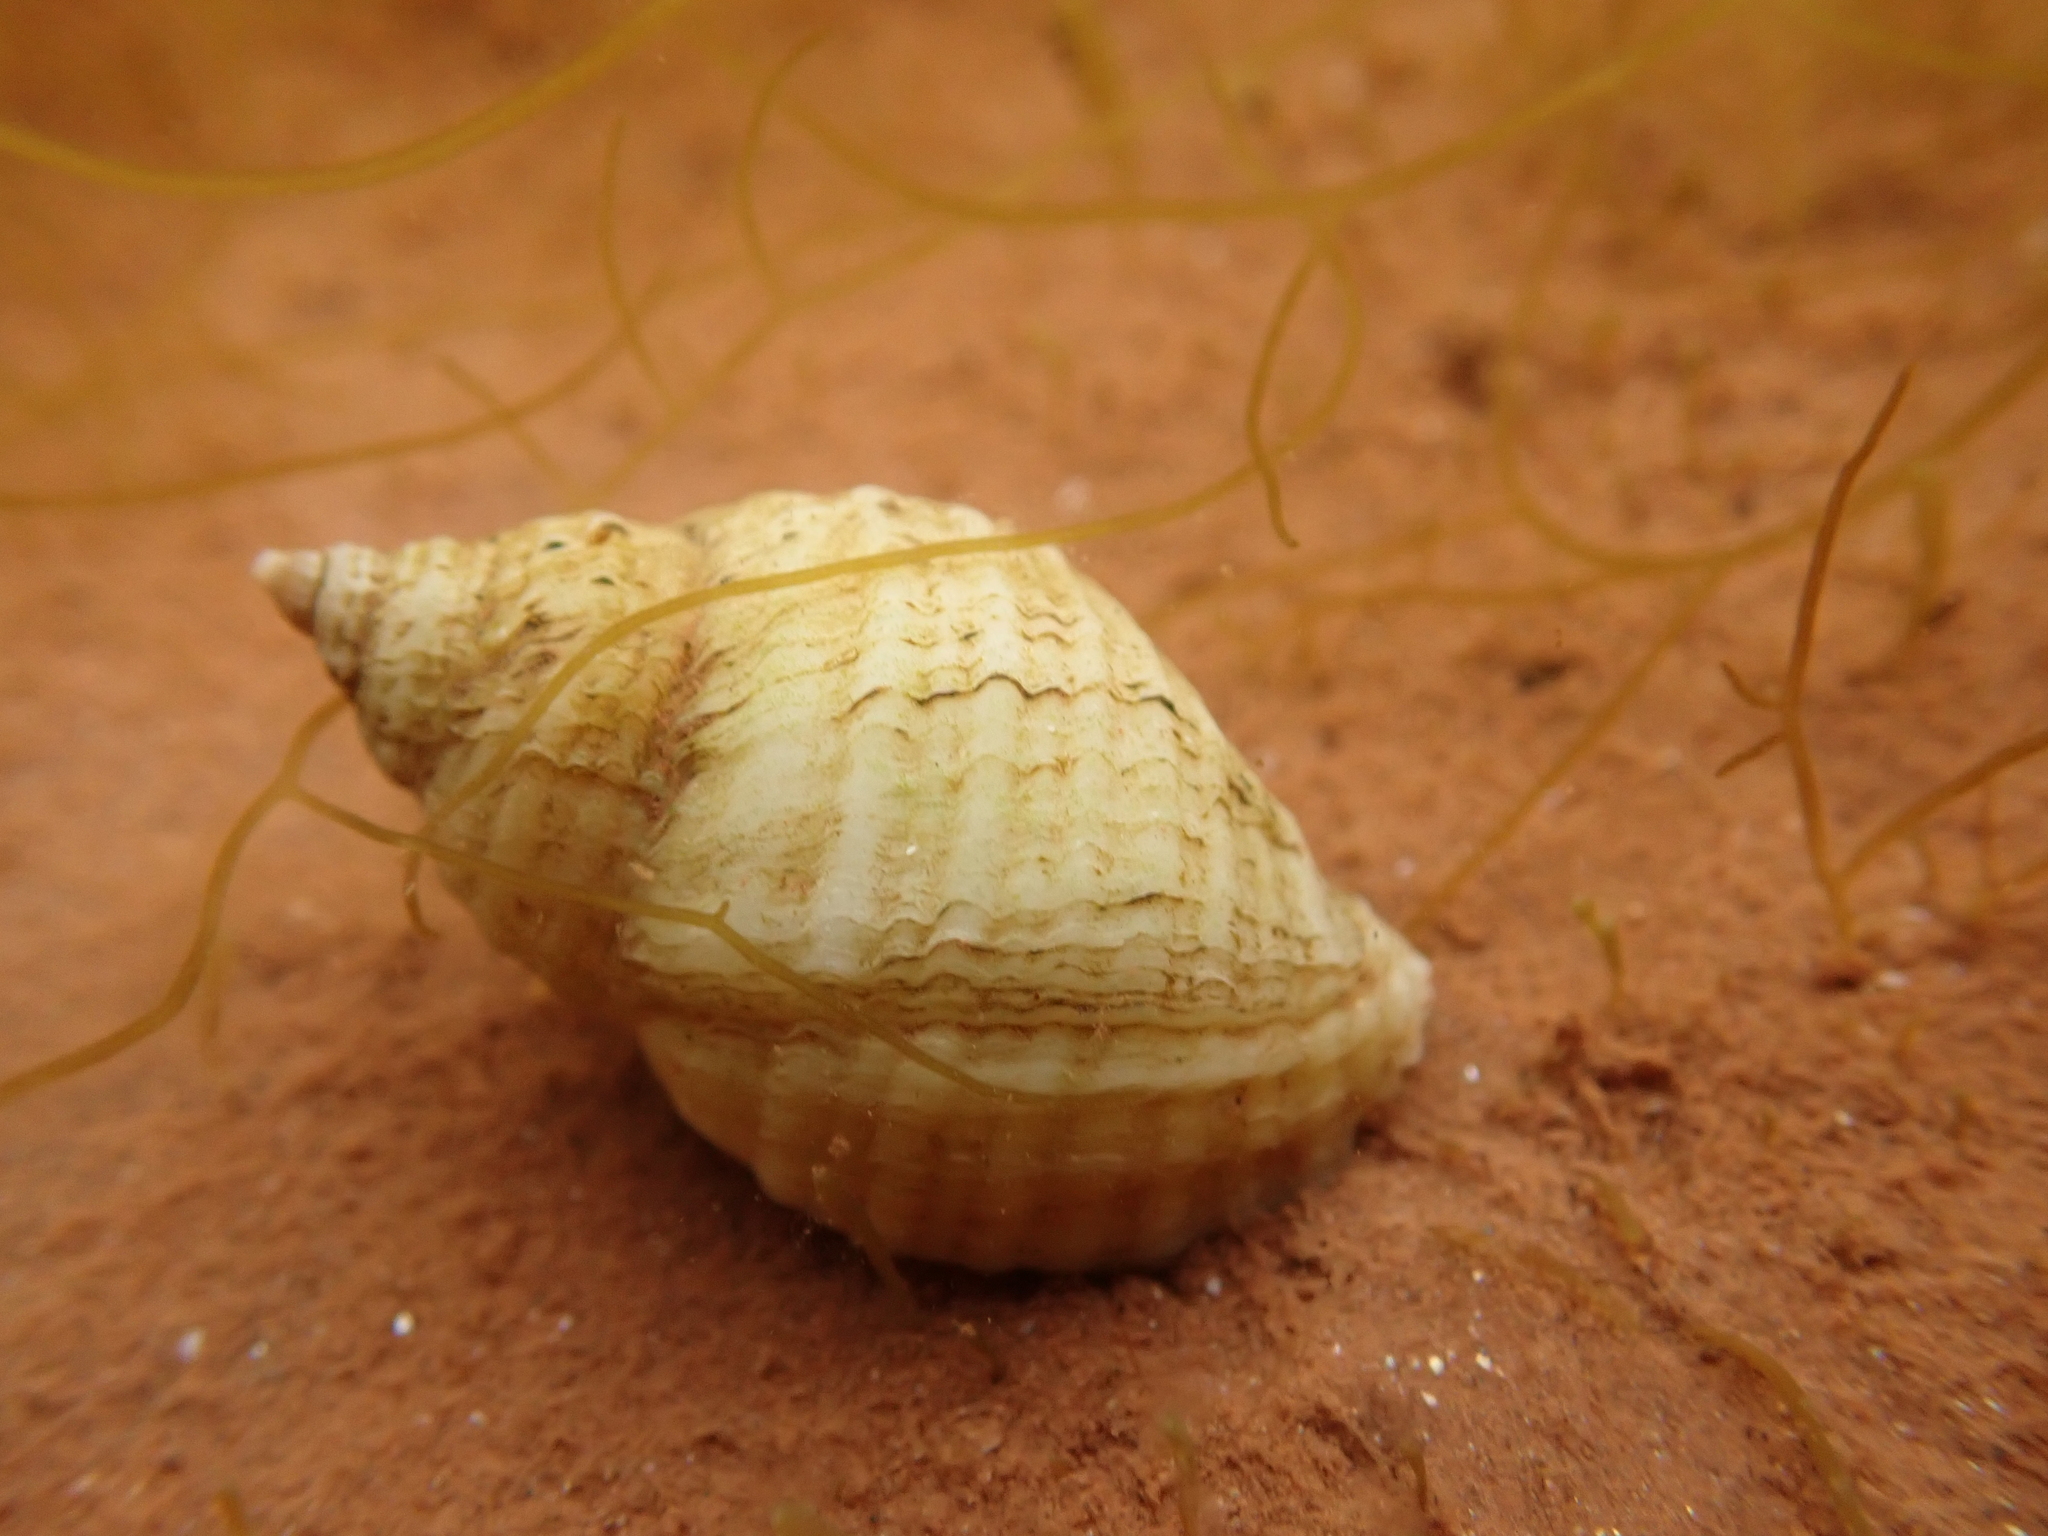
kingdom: Animalia
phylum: Mollusca
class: Gastropoda
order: Neogastropoda
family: Muricidae
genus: Nucella
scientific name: Nucella lapillus
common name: Dog whelk
